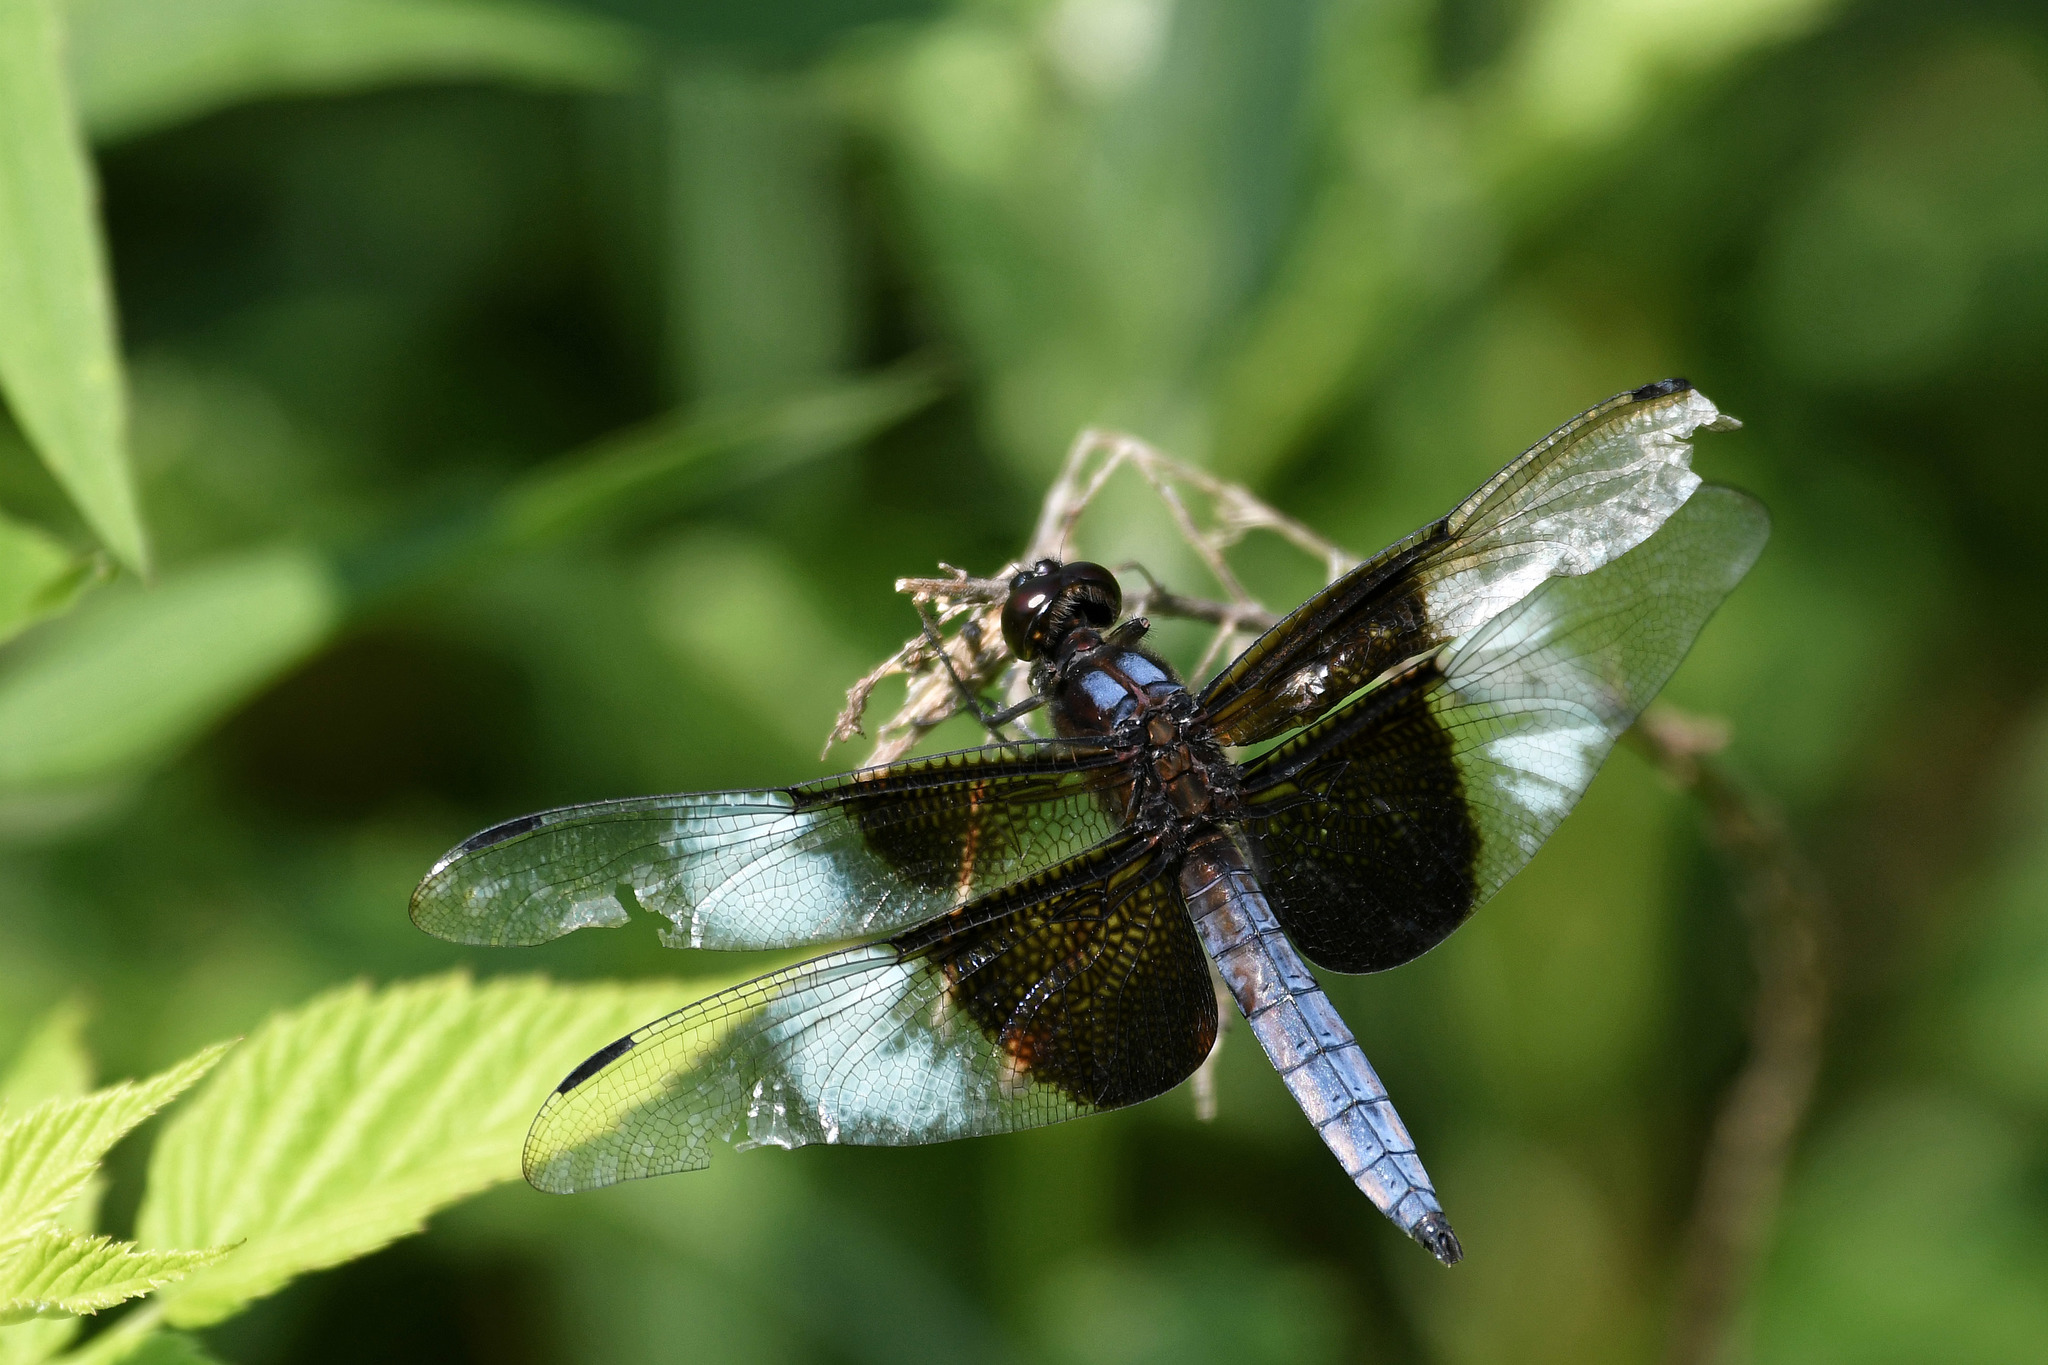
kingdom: Animalia
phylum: Arthropoda
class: Insecta
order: Odonata
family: Libellulidae
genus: Libellula
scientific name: Libellula luctuosa
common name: Widow skimmer
